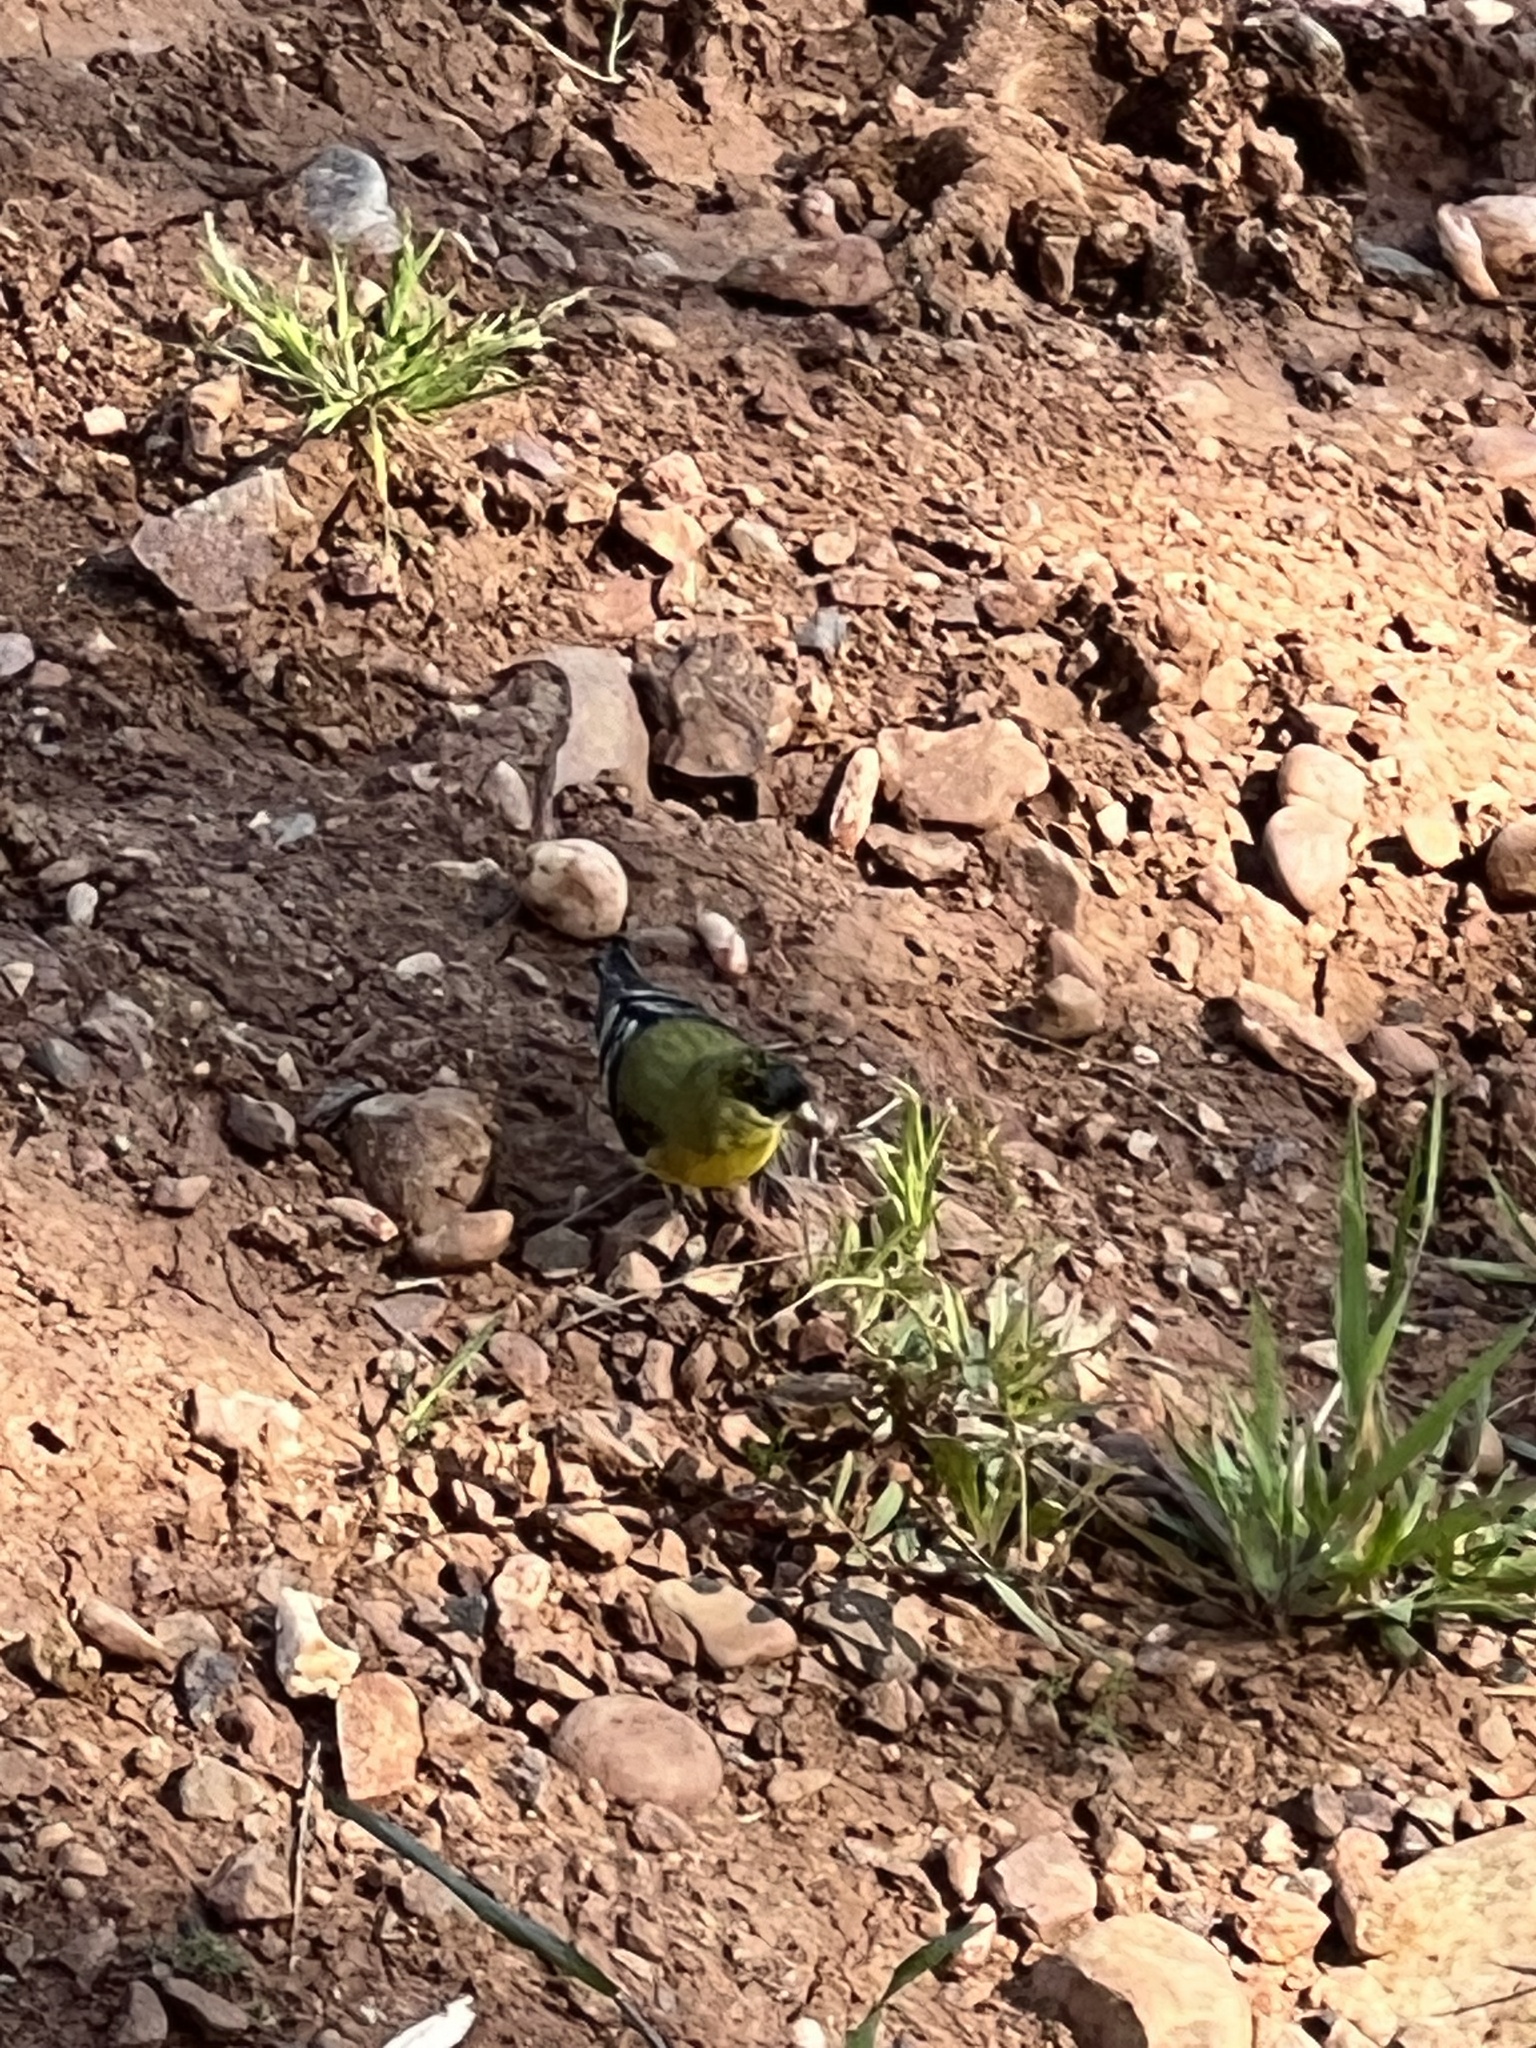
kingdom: Animalia
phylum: Chordata
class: Aves
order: Passeriformes
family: Fringillidae
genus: Spinus
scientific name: Spinus psaltria
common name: Lesser goldfinch
